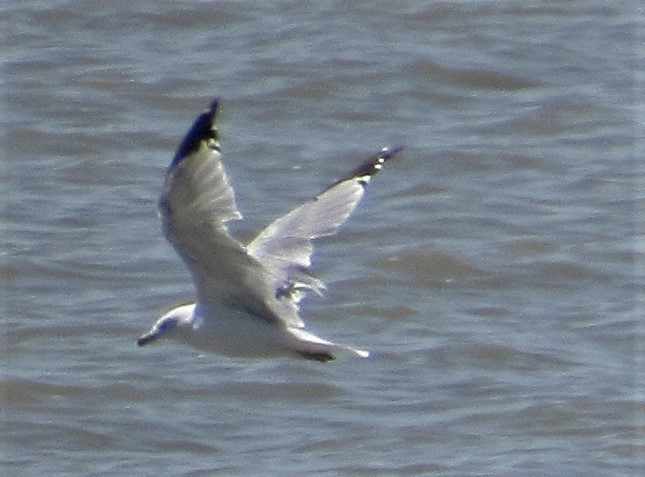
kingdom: Animalia
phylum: Chordata
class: Aves
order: Charadriiformes
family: Laridae
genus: Larus
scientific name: Larus delawarensis
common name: Ring-billed gull
